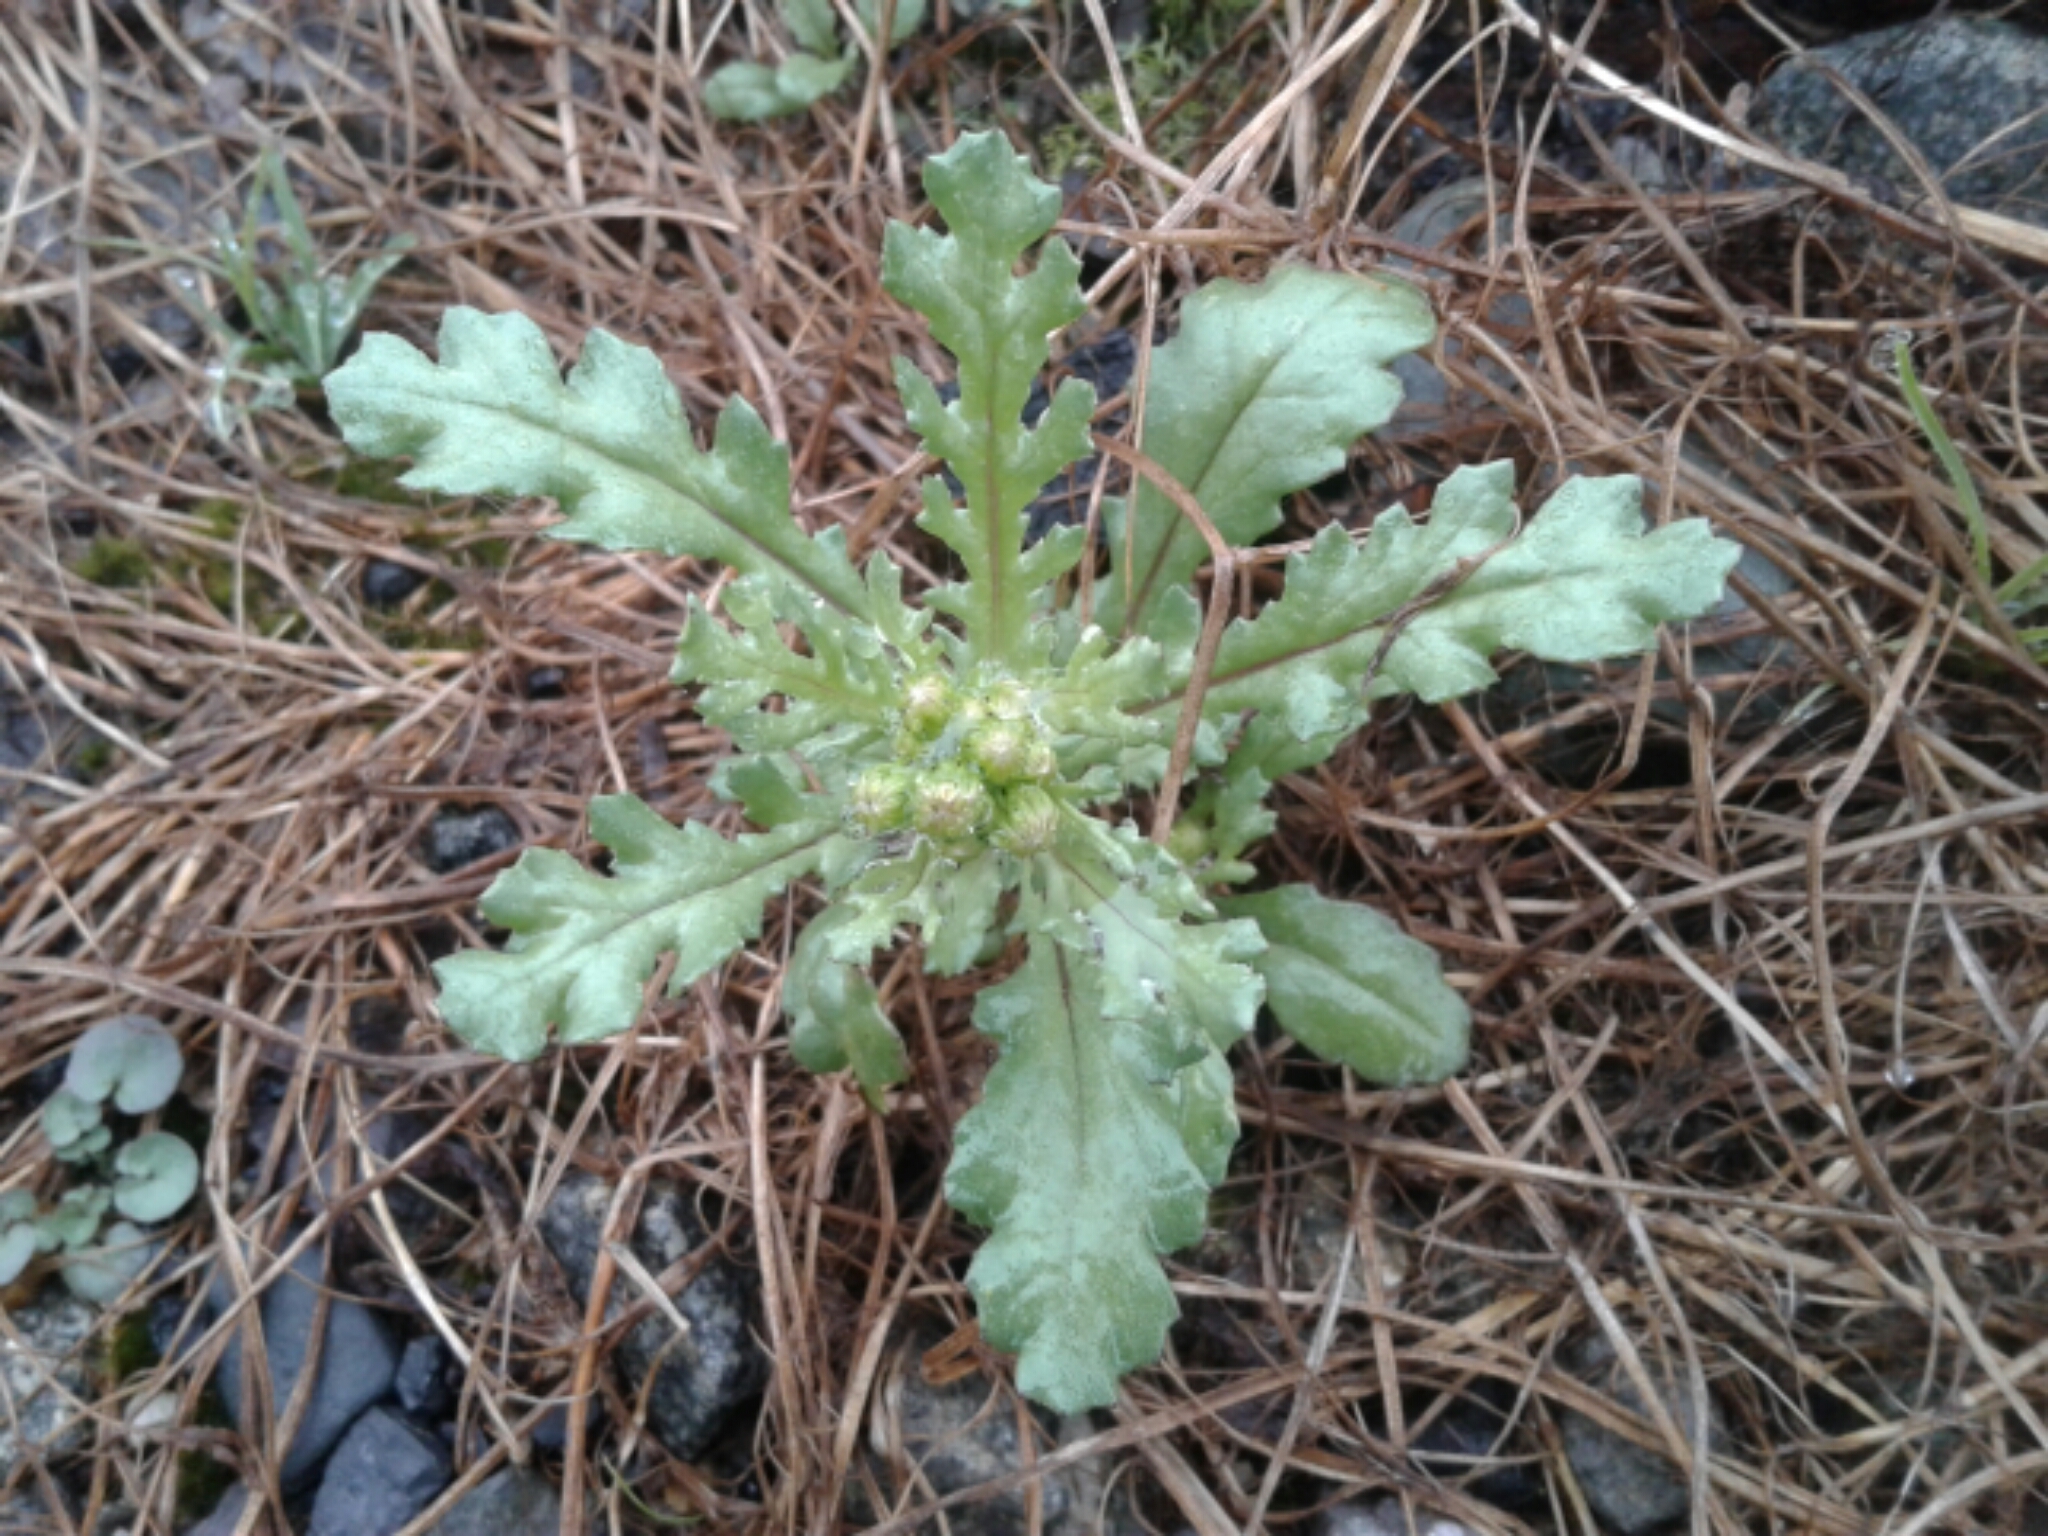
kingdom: Plantae
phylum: Tracheophyta
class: Magnoliopsida
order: Asterales
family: Asteraceae
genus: Senecio
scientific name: Senecio vulgaris
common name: Old-man-in-the-spring
